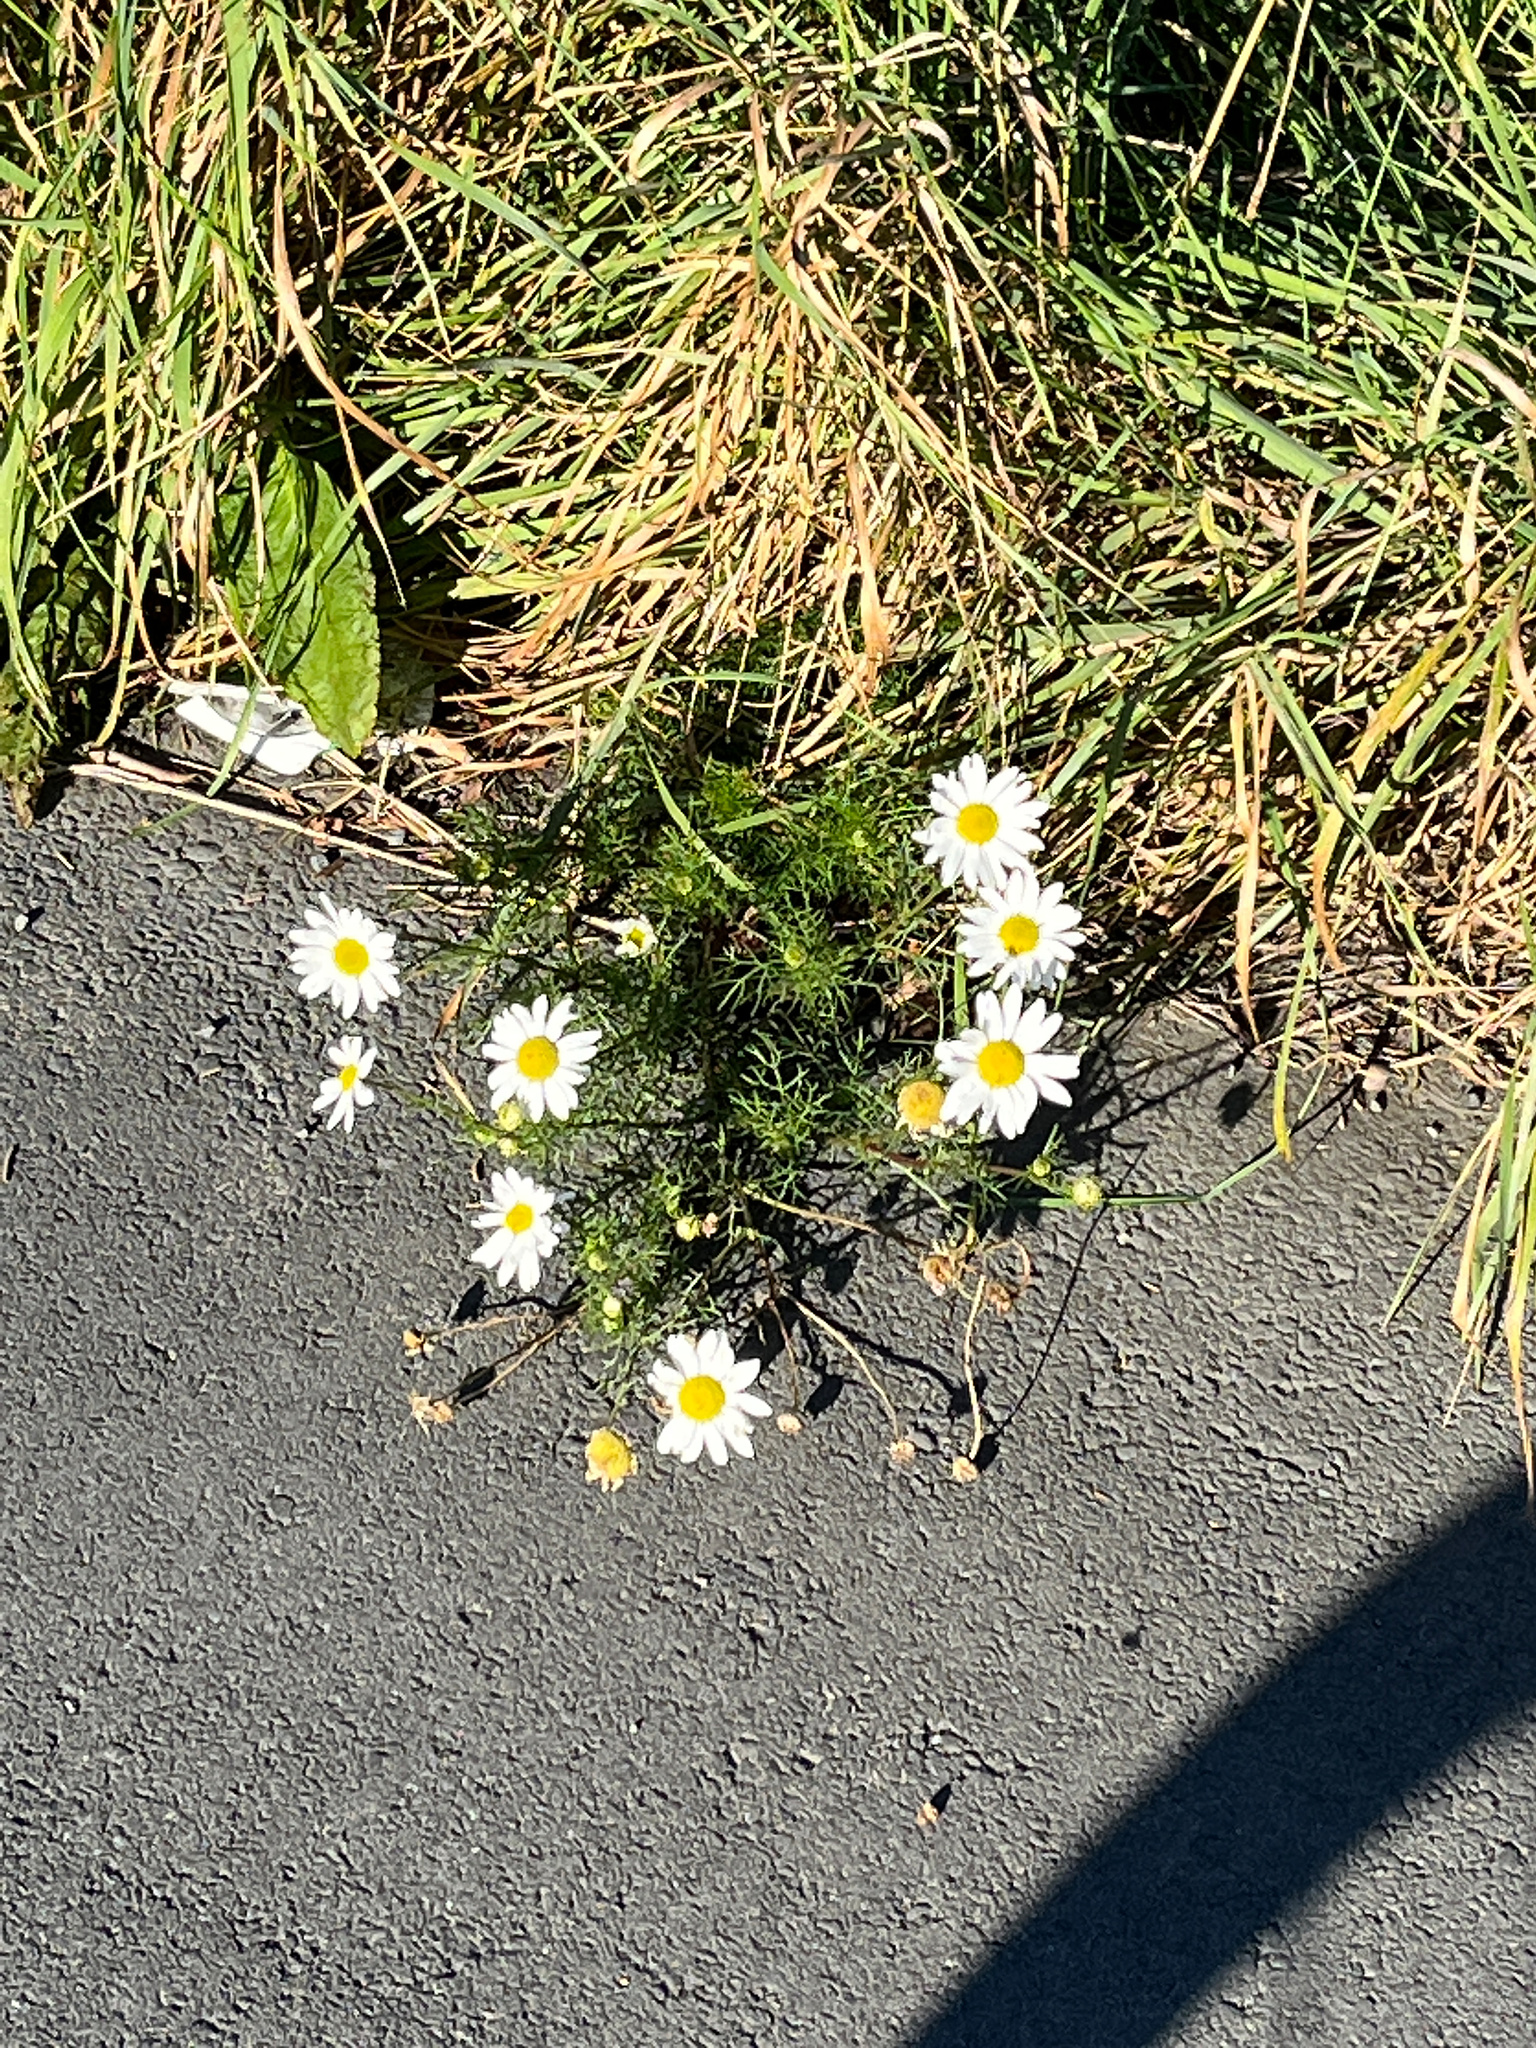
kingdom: Plantae
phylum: Tracheophyta
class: Magnoliopsida
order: Asterales
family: Asteraceae
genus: Tripleurospermum
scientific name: Tripleurospermum inodorum
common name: Scentless mayweed
